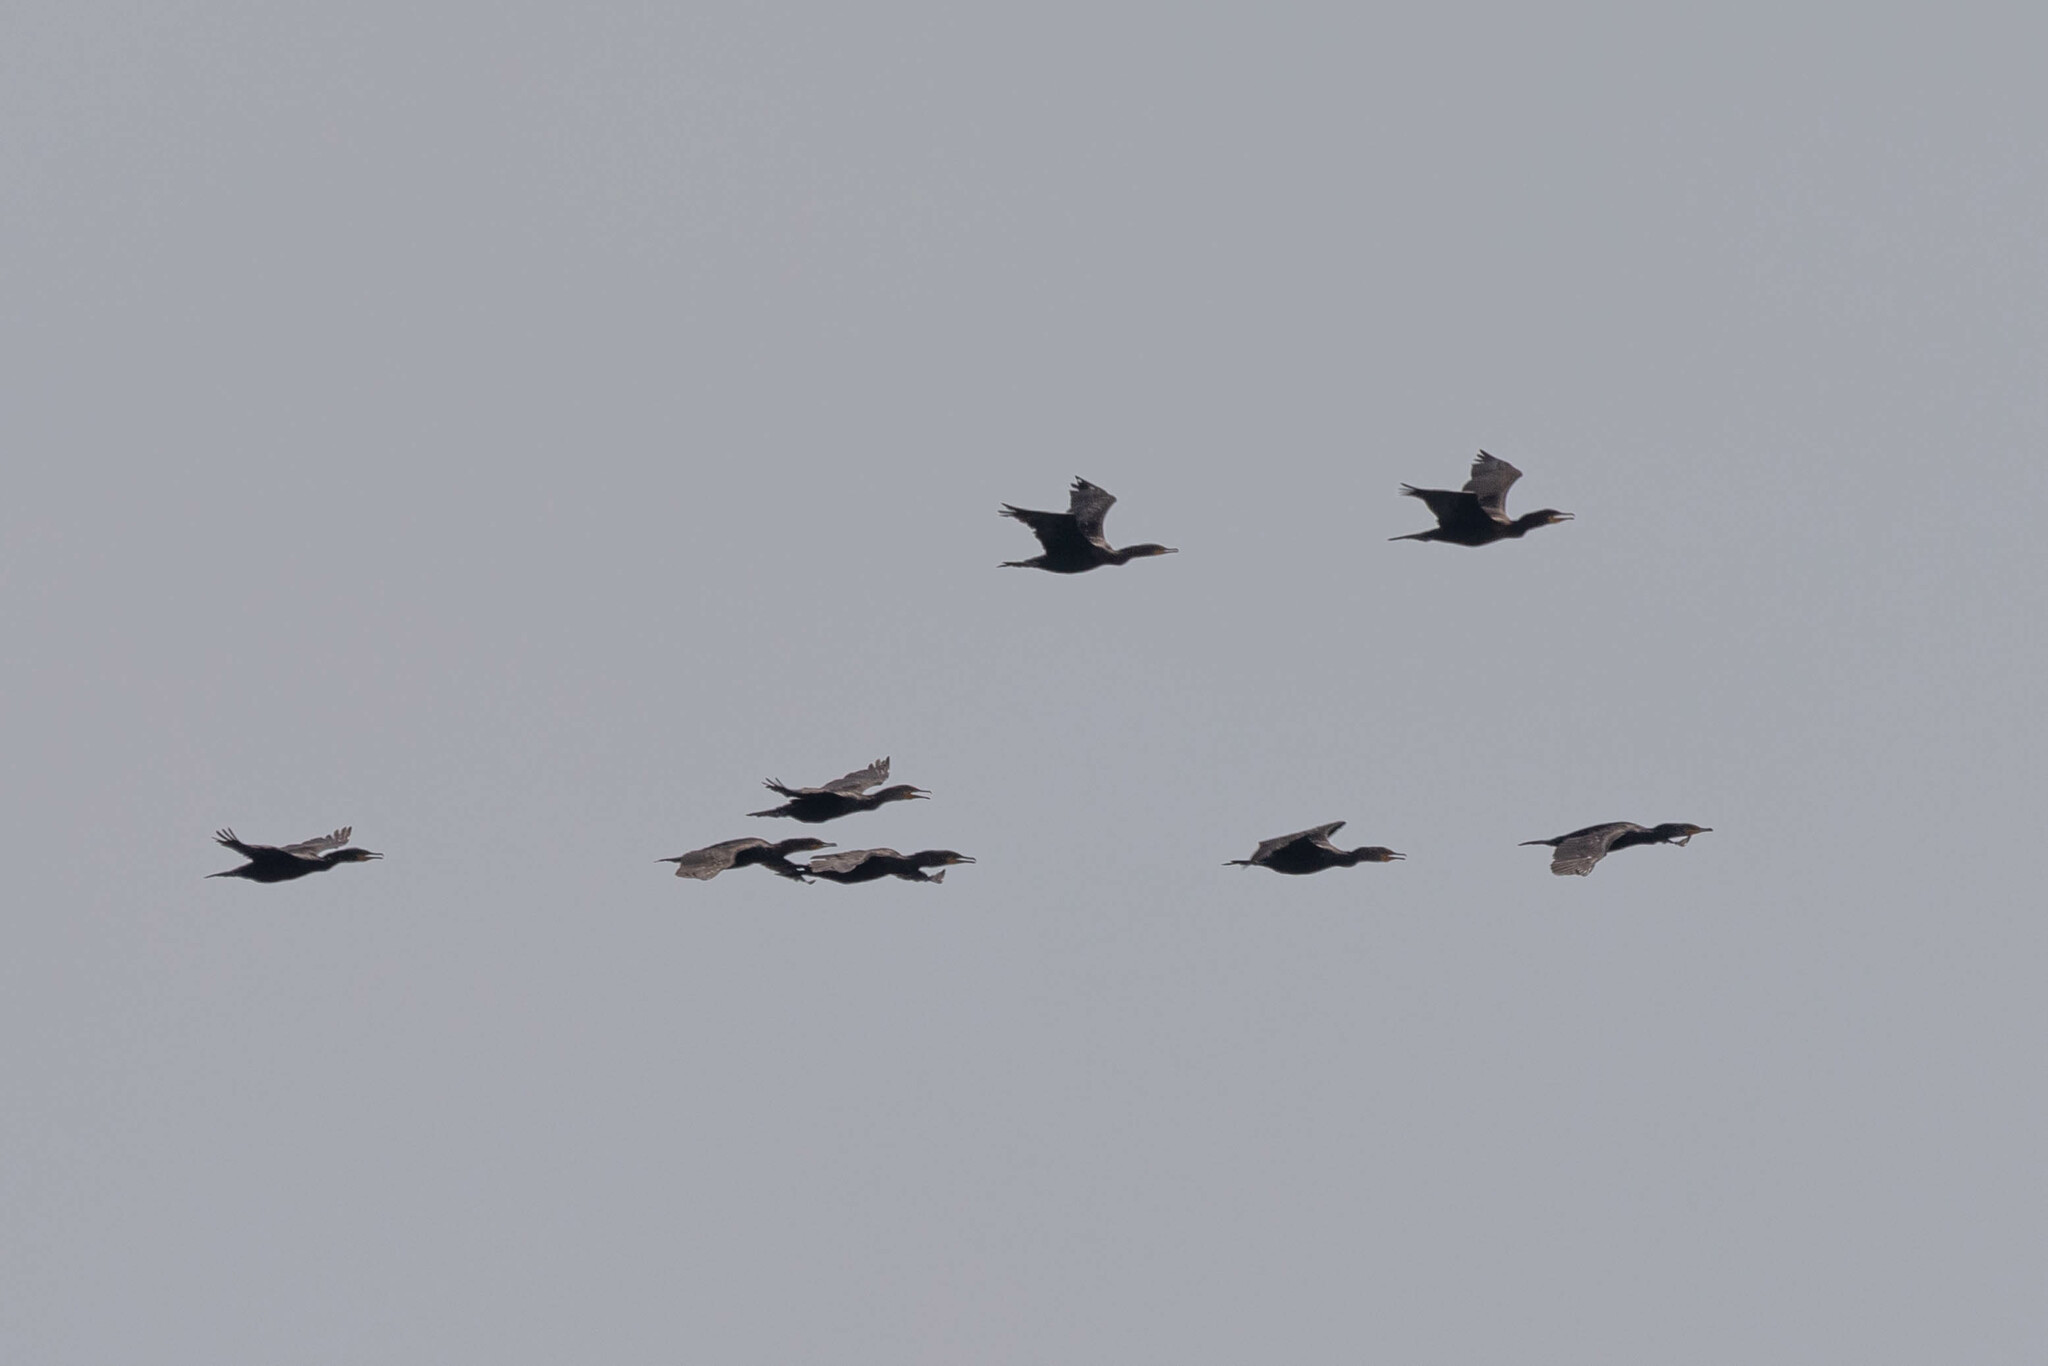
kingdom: Animalia
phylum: Chordata
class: Aves
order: Suliformes
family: Phalacrocoracidae
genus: Phalacrocorax
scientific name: Phalacrocorax auritus
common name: Double-crested cormorant
